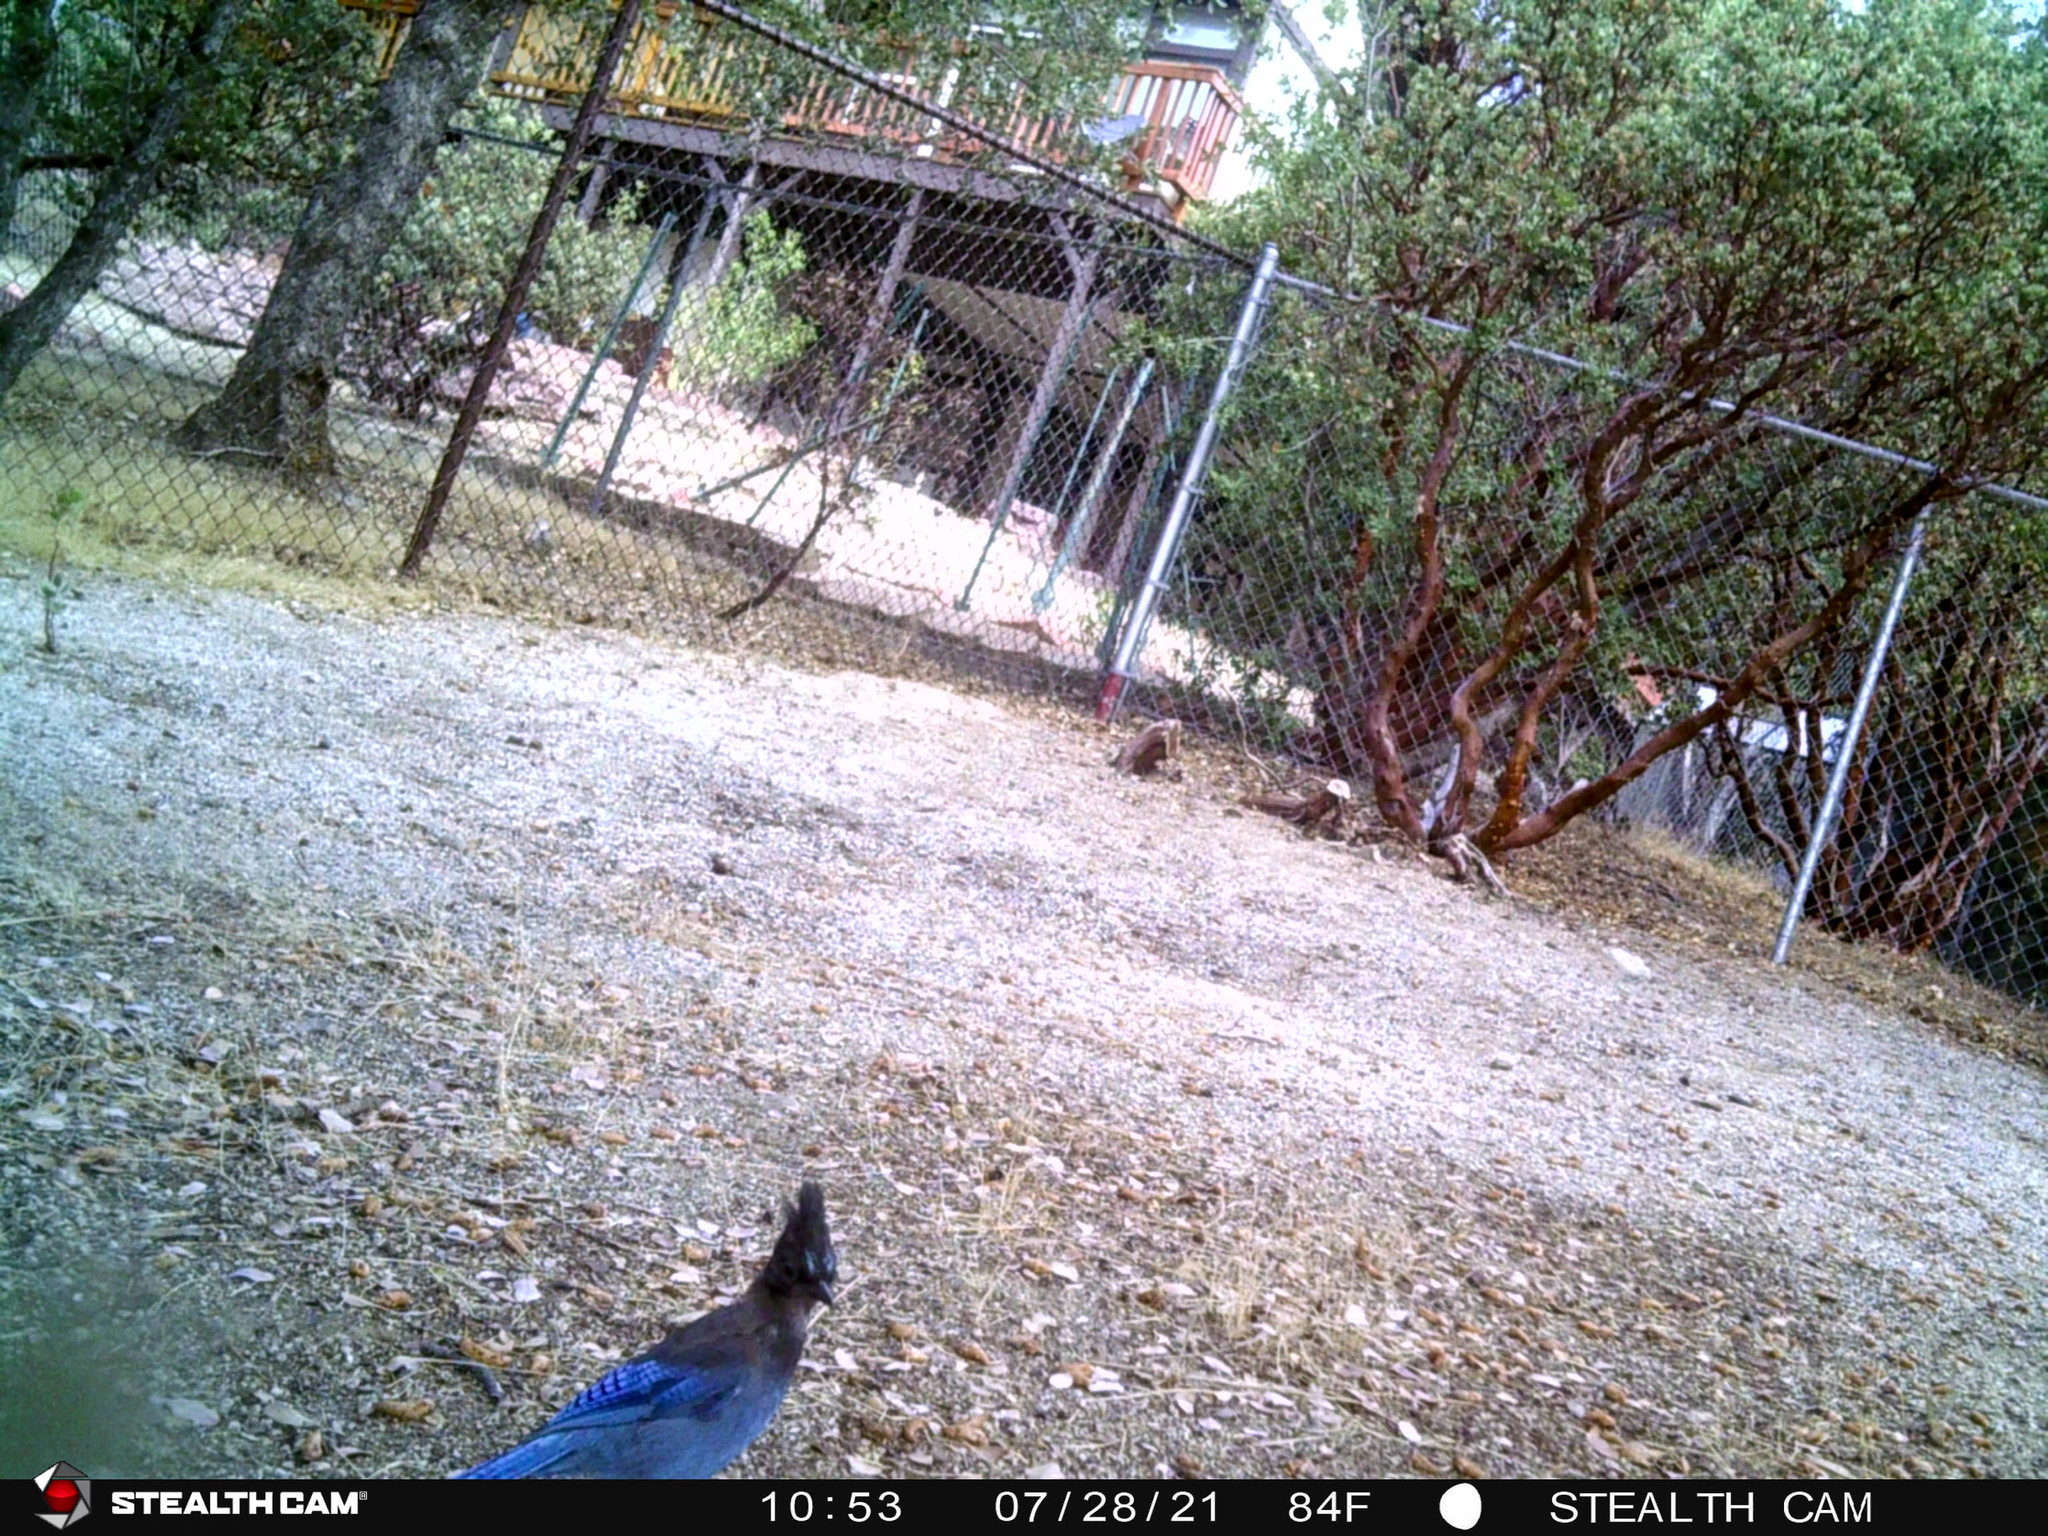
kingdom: Animalia
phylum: Chordata
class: Aves
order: Passeriformes
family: Corvidae
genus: Cyanocitta
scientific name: Cyanocitta stelleri
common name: Steller's jay
